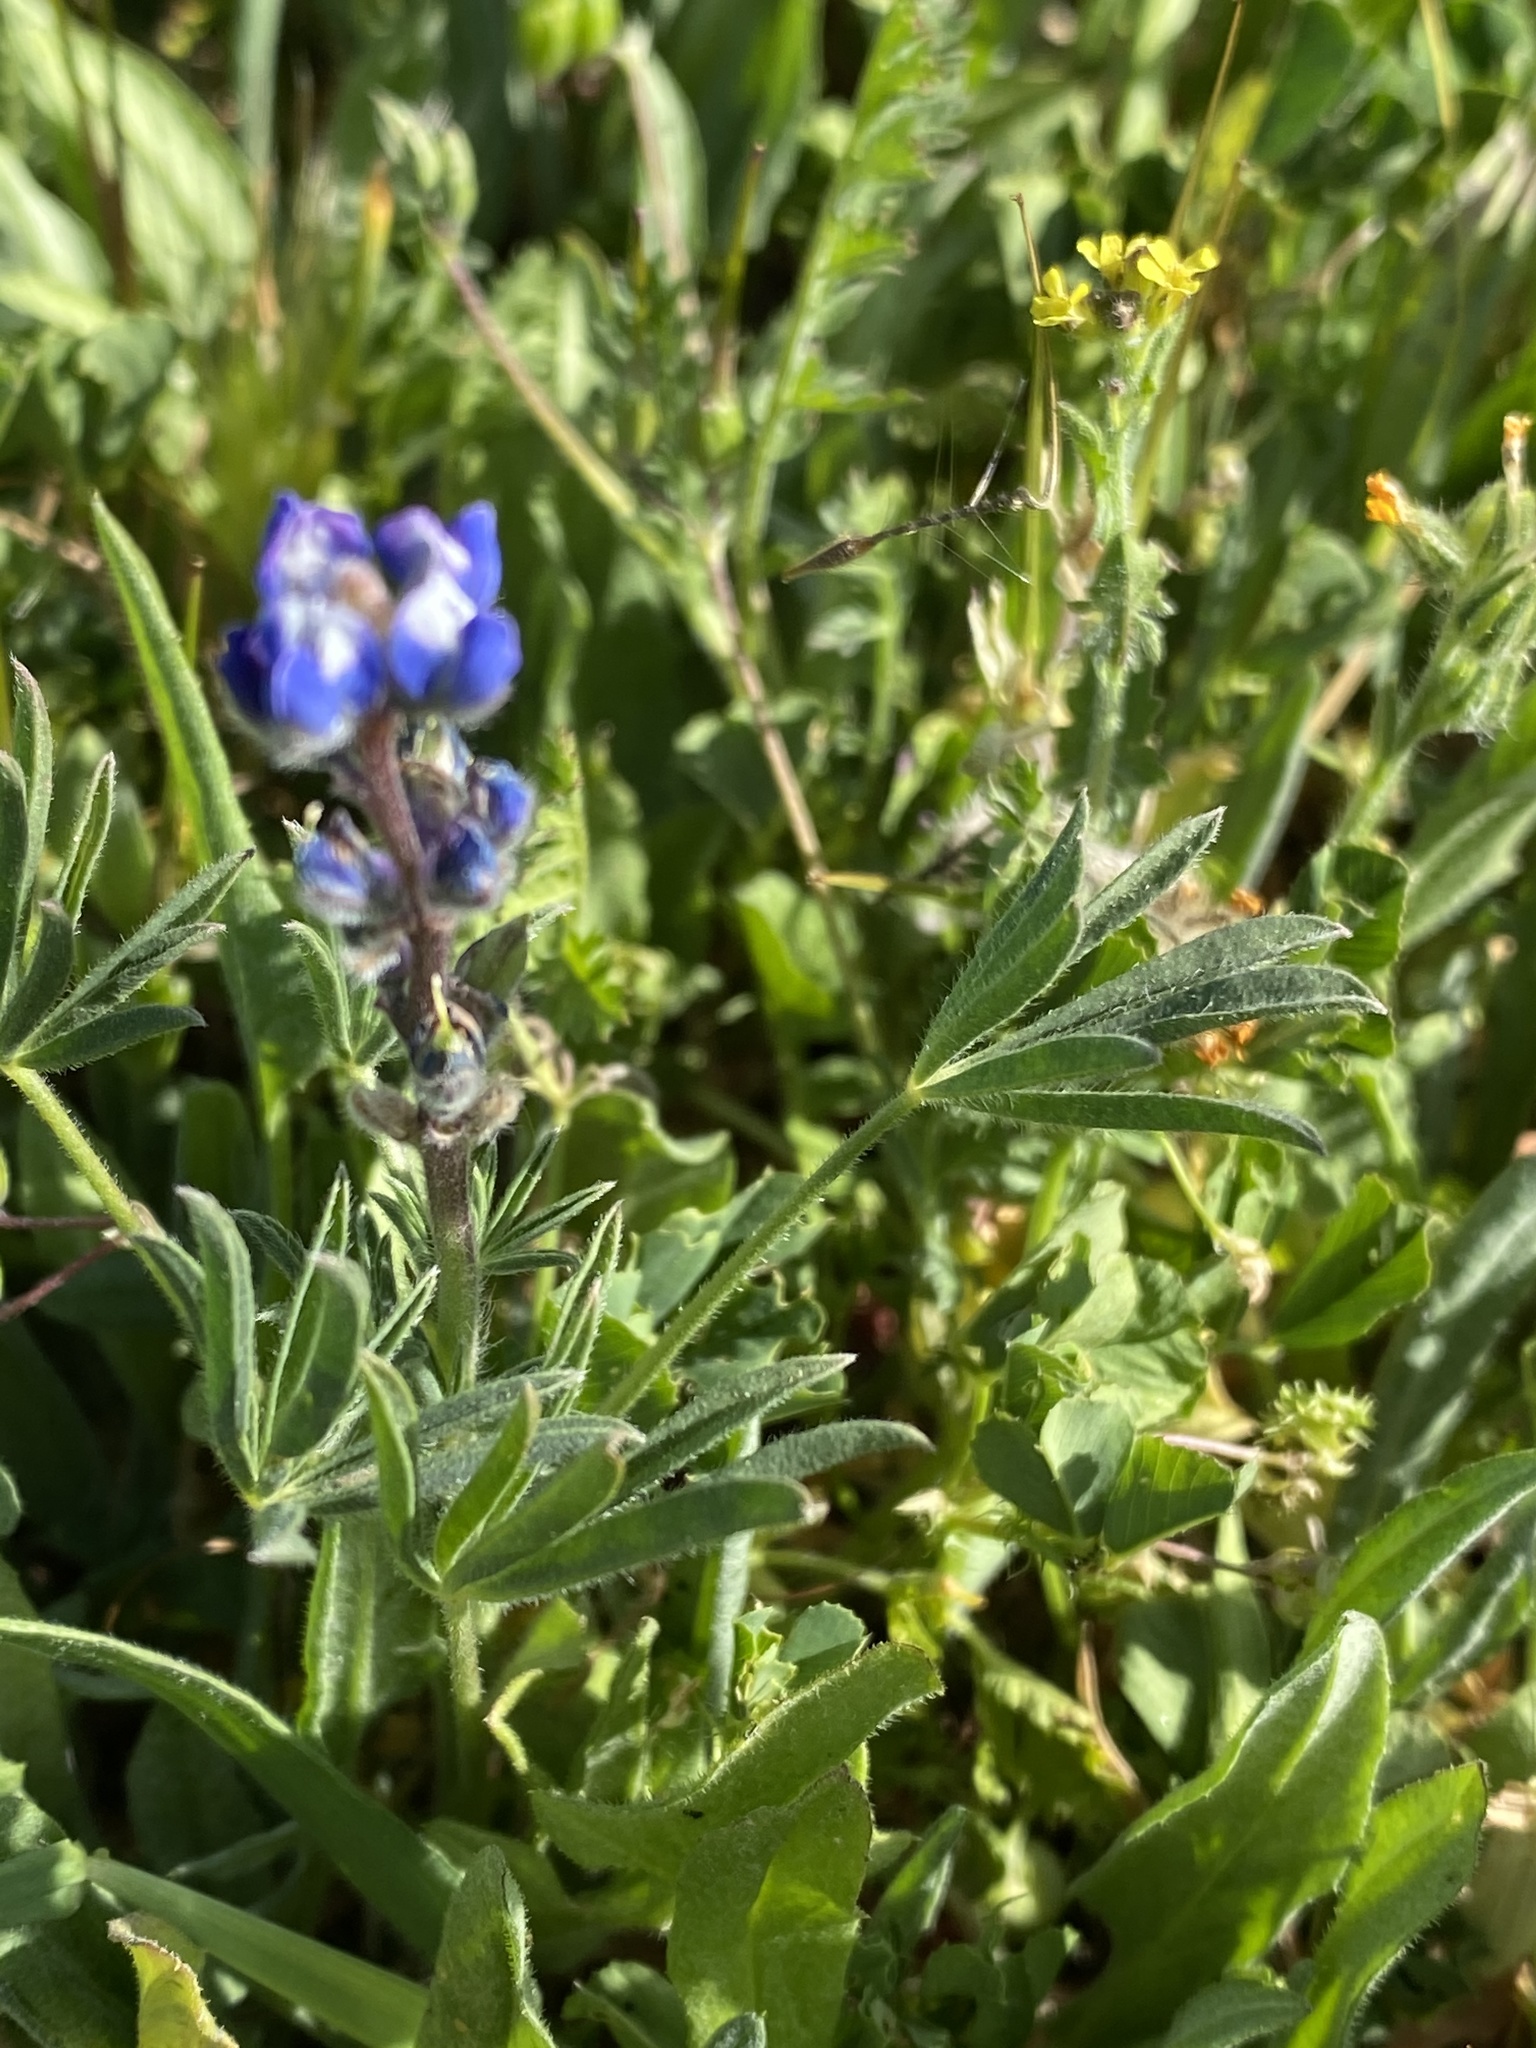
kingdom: Plantae
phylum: Tracheophyta
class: Magnoliopsida
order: Fabales
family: Fabaceae
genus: Lupinus
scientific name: Lupinus bicolor
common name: Miniature lupine
